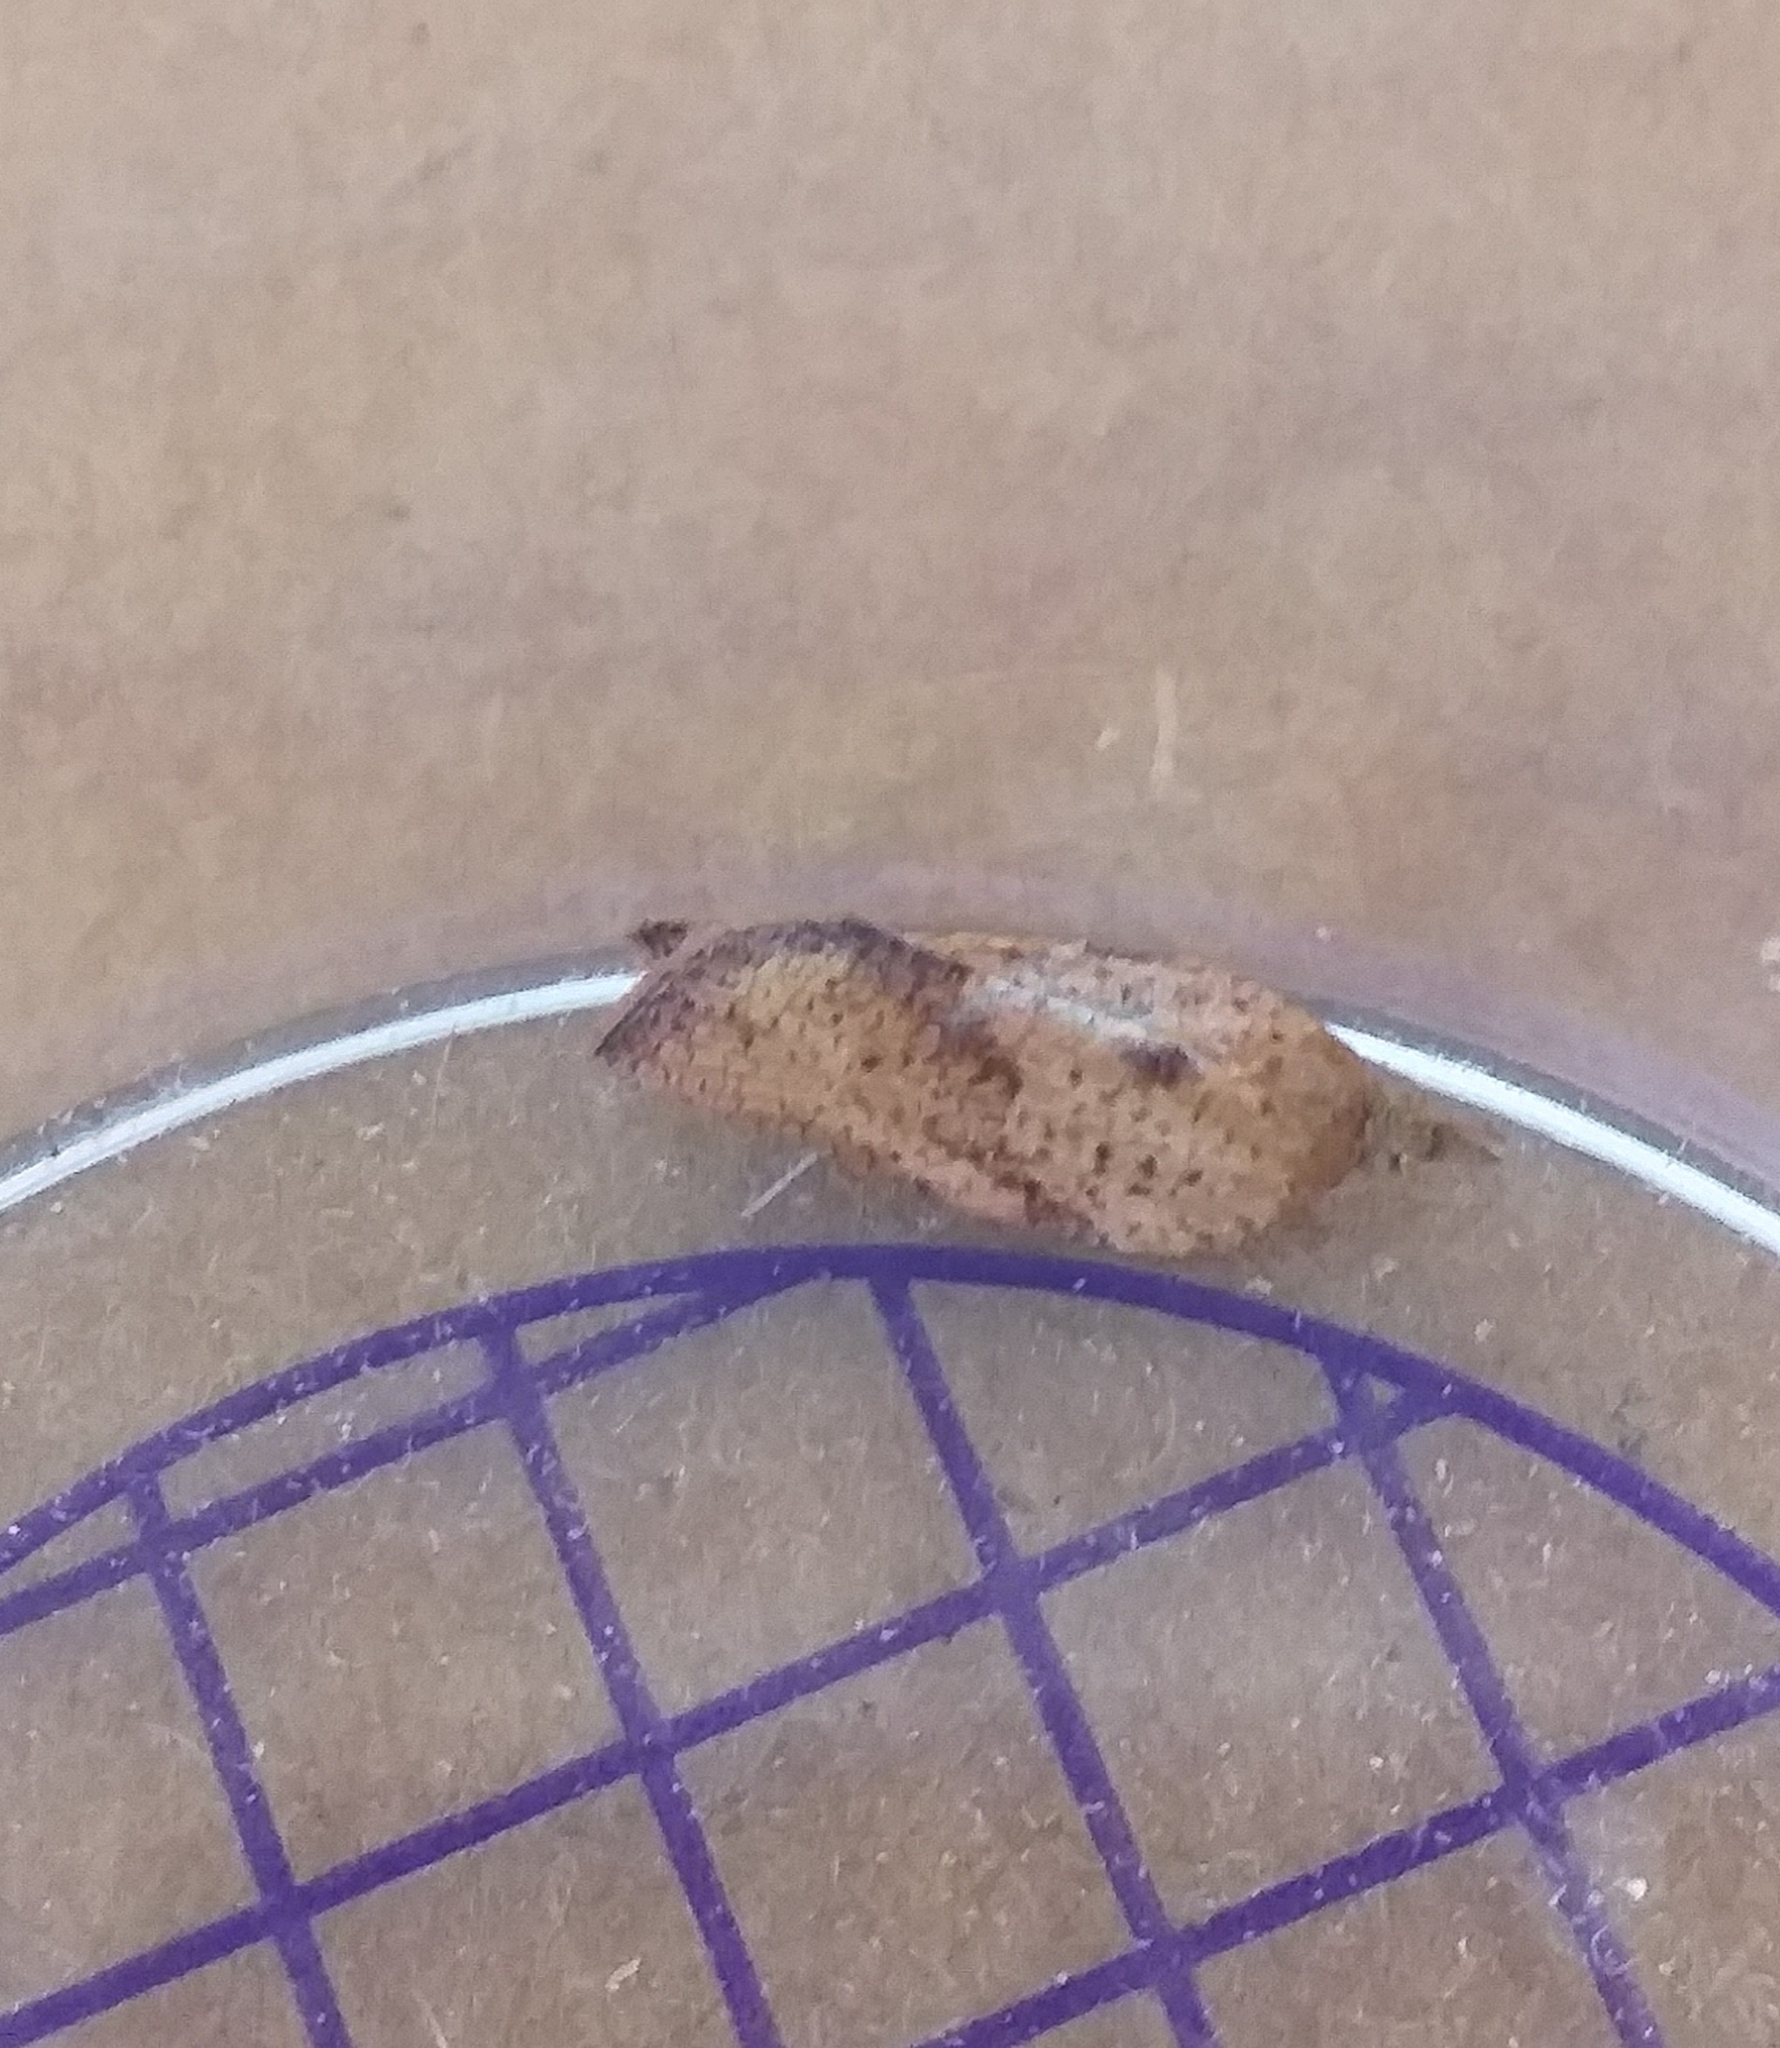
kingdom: Animalia
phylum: Arthropoda
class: Insecta
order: Lepidoptera
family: Tortricidae
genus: Epiphyas
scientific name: Epiphyas postvittana
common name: Light brown apple moth
